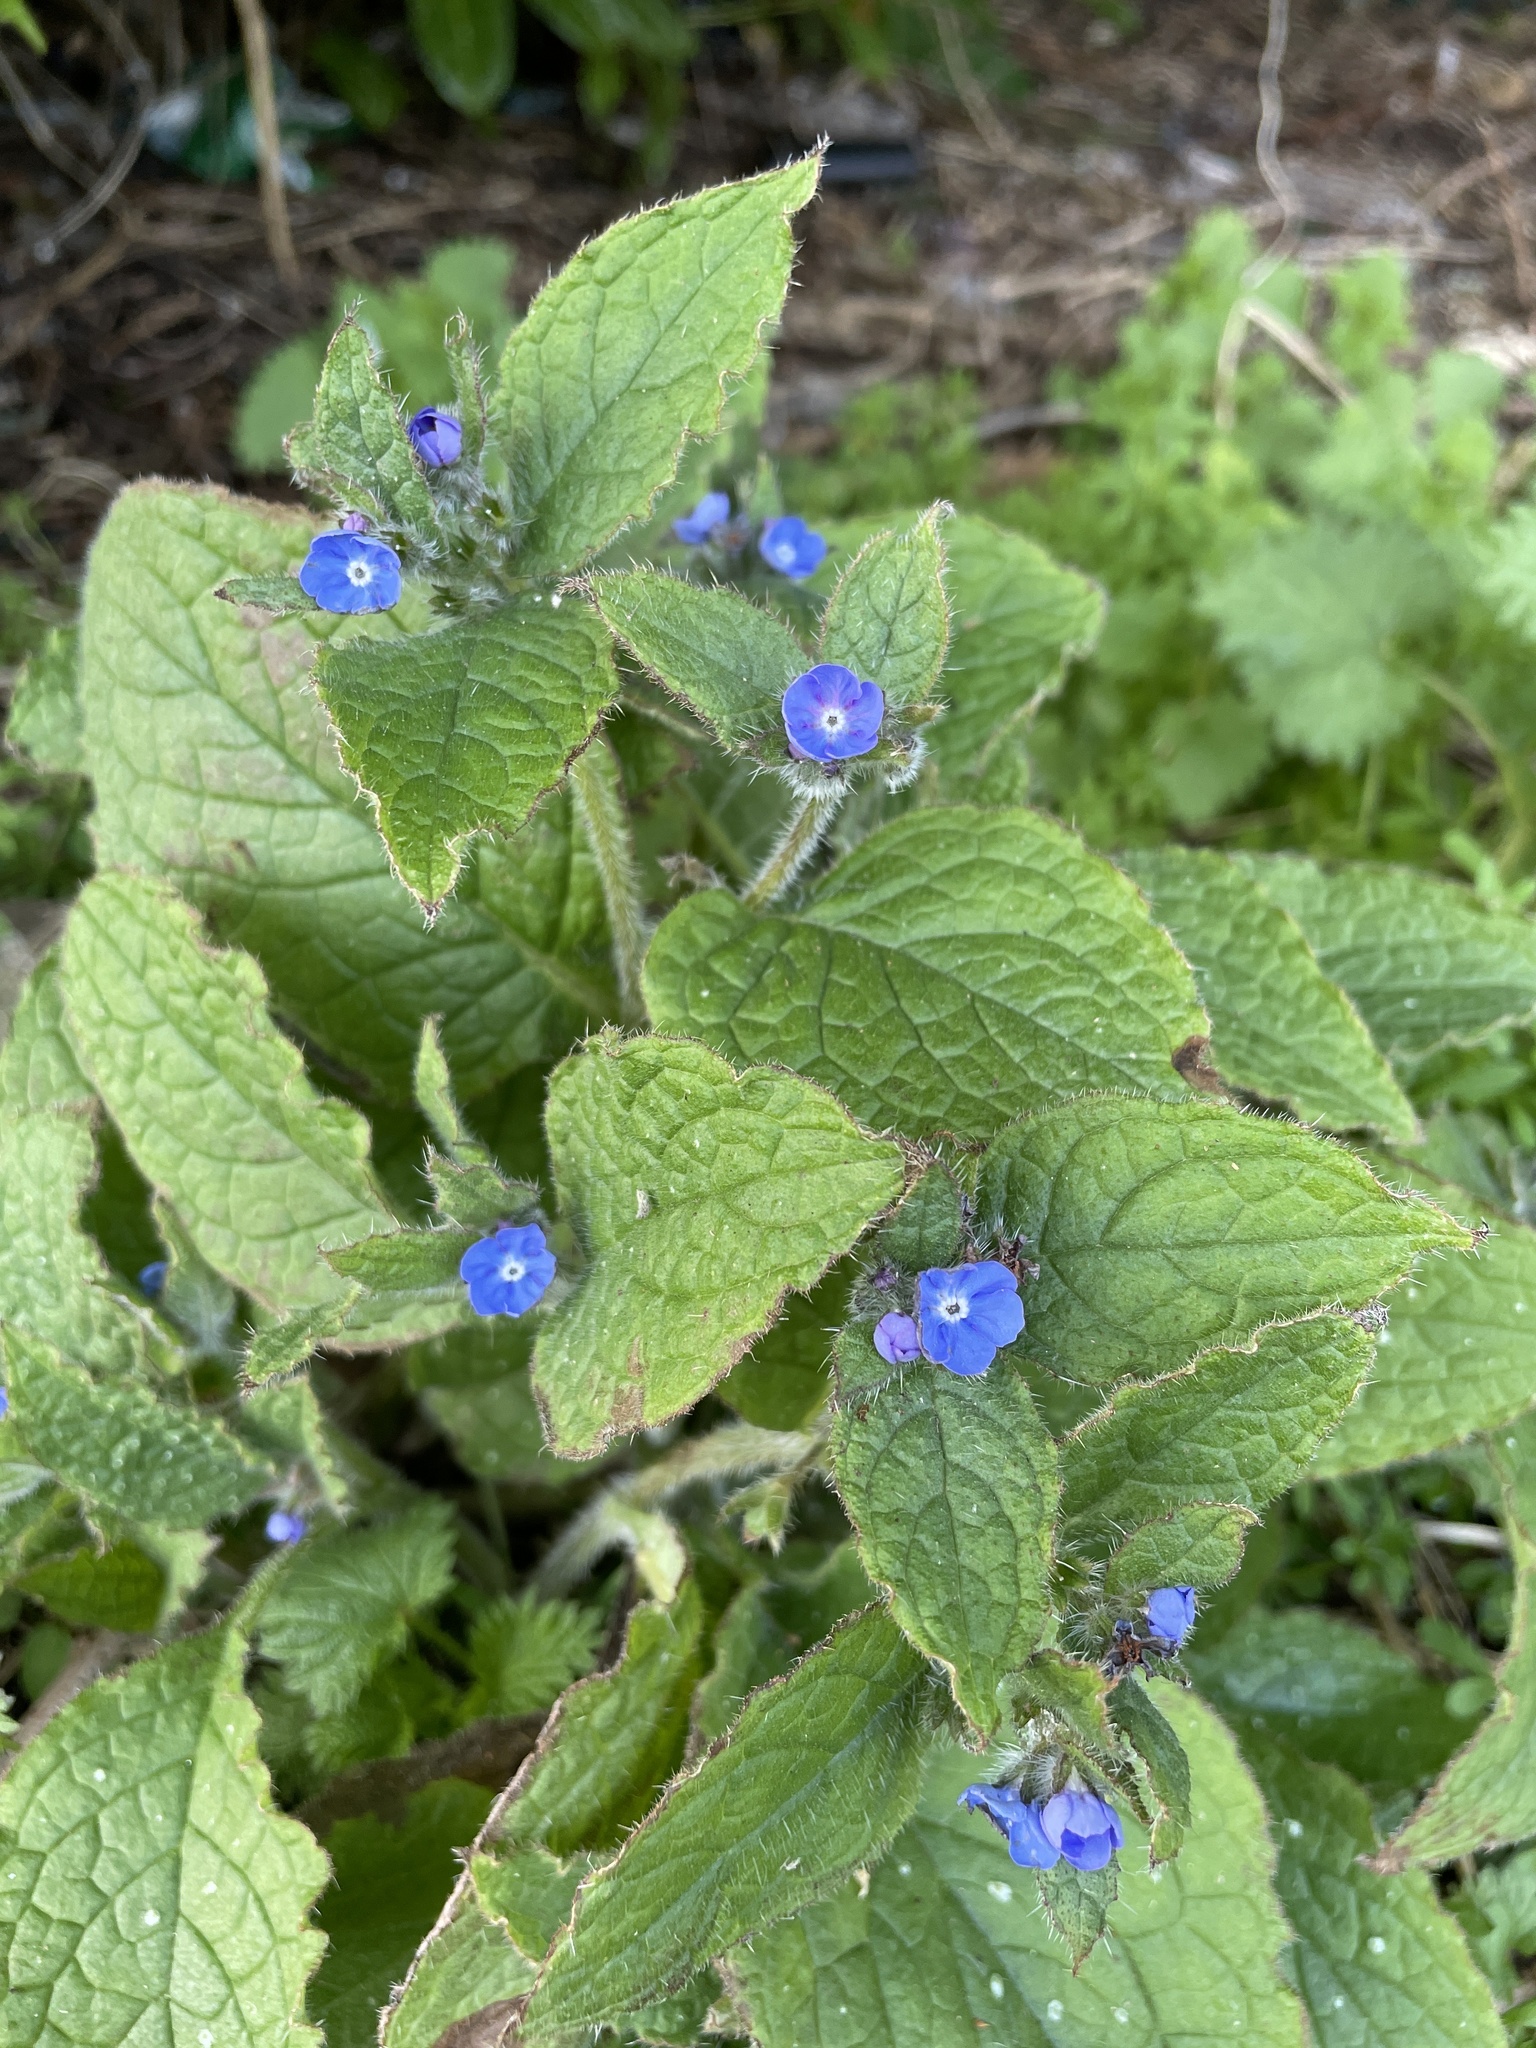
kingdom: Plantae
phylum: Tracheophyta
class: Magnoliopsida
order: Boraginales
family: Boraginaceae
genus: Pentaglottis
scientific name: Pentaglottis sempervirens
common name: Green alkanet
